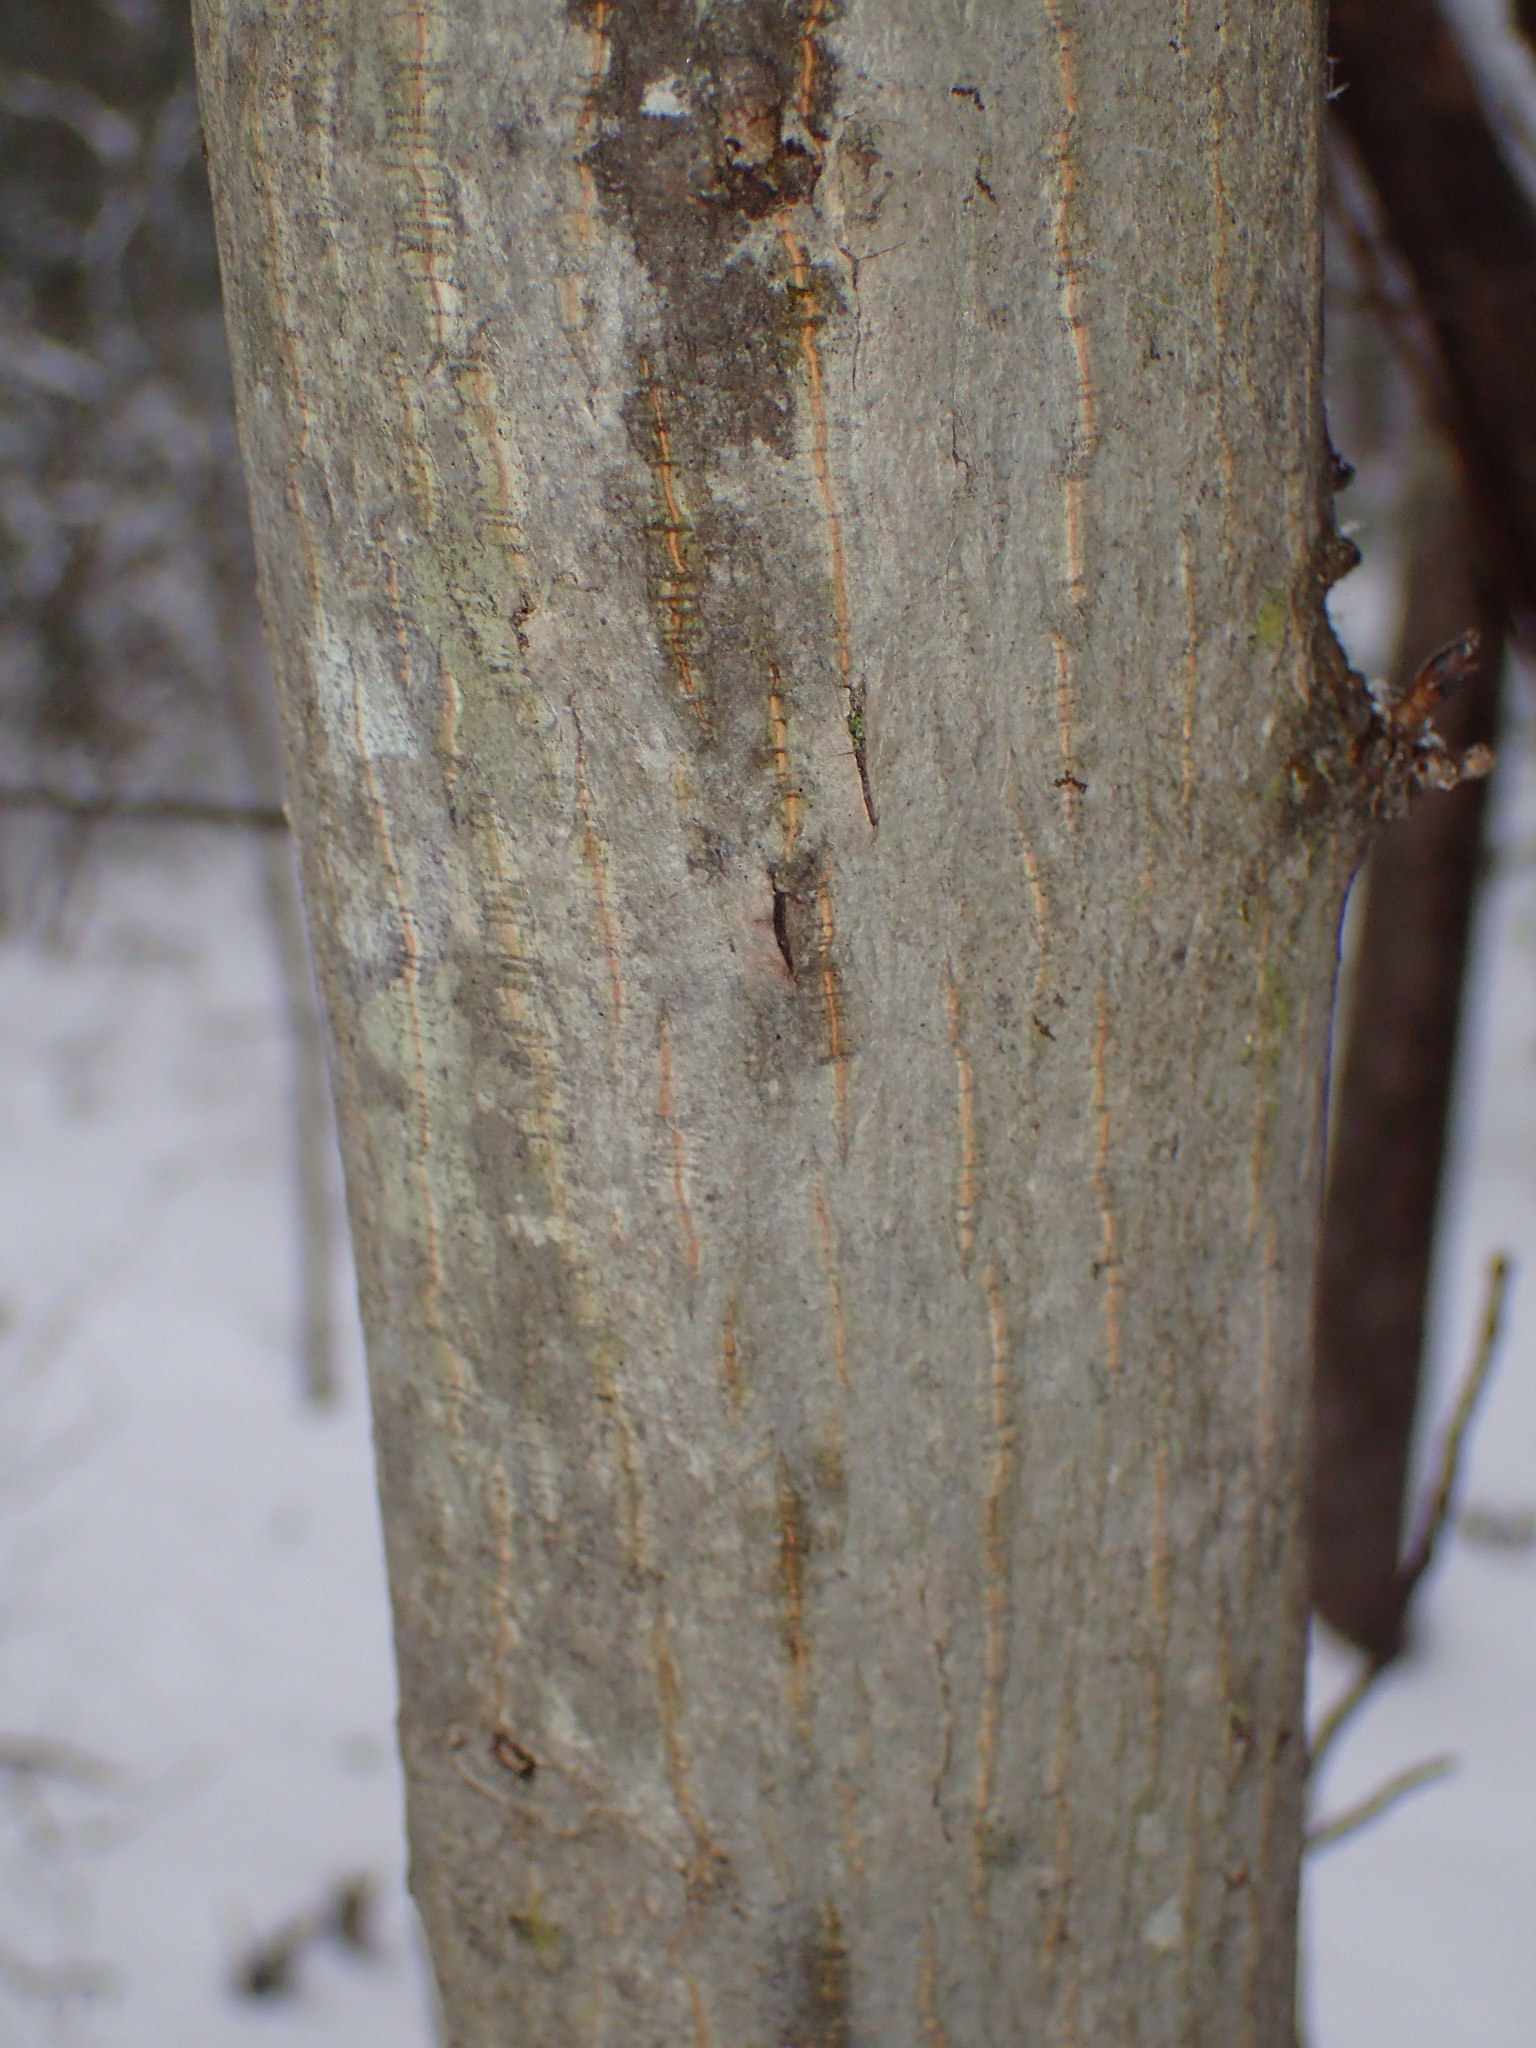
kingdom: Plantae
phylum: Tracheophyta
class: Magnoliopsida
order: Fagales
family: Juglandaceae
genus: Carya
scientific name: Carya glabra
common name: Pignut hickory
